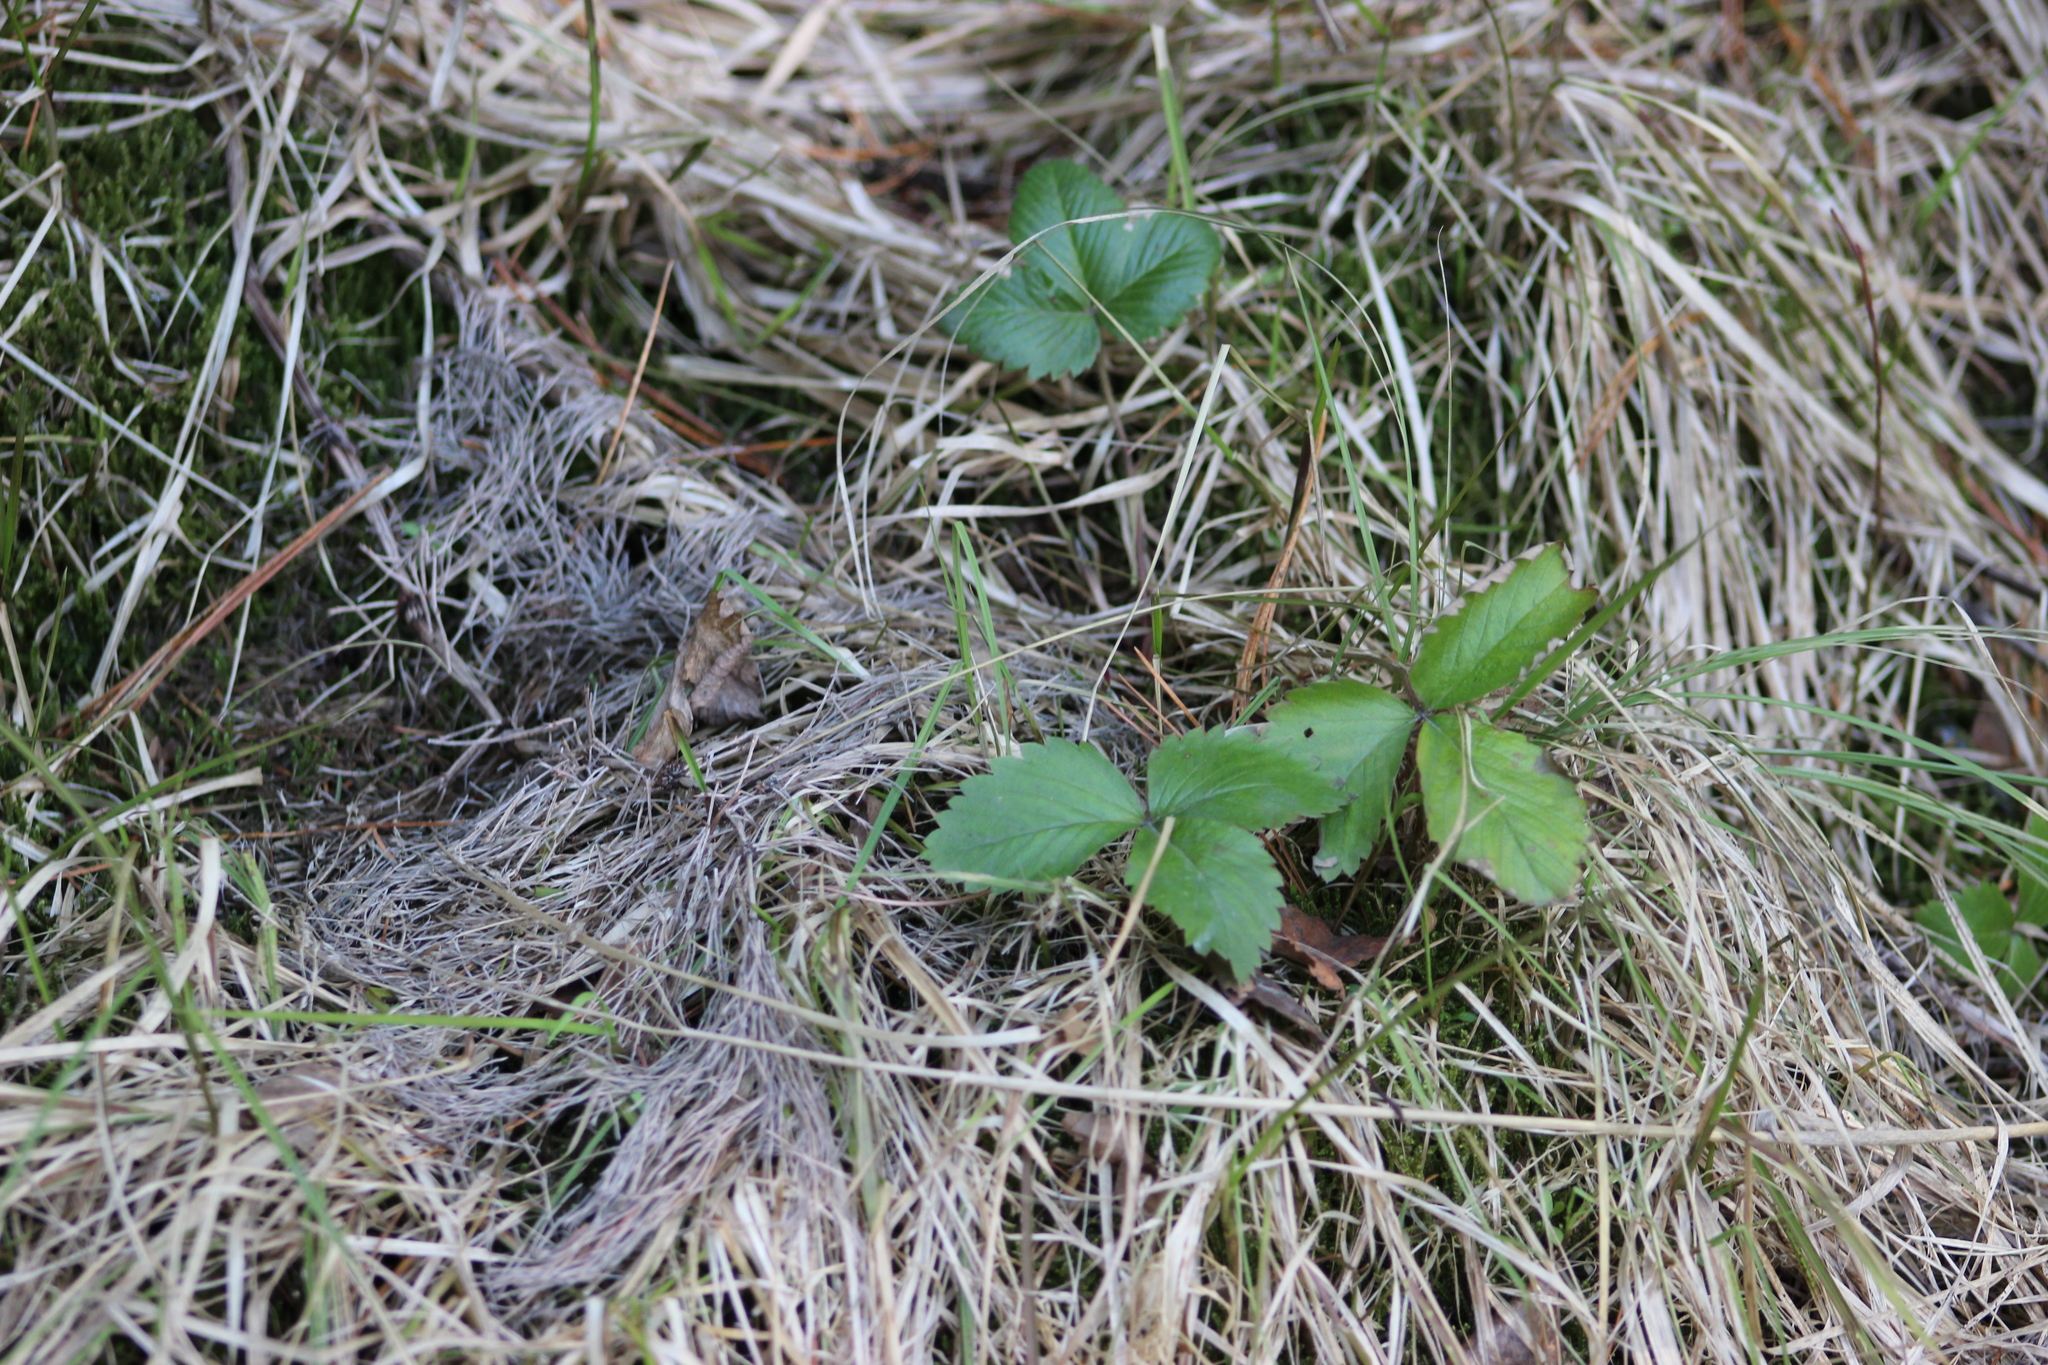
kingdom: Plantae
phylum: Tracheophyta
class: Magnoliopsida
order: Rosales
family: Rosaceae
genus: Fragaria
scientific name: Fragaria vesca
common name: Wild strawberry
